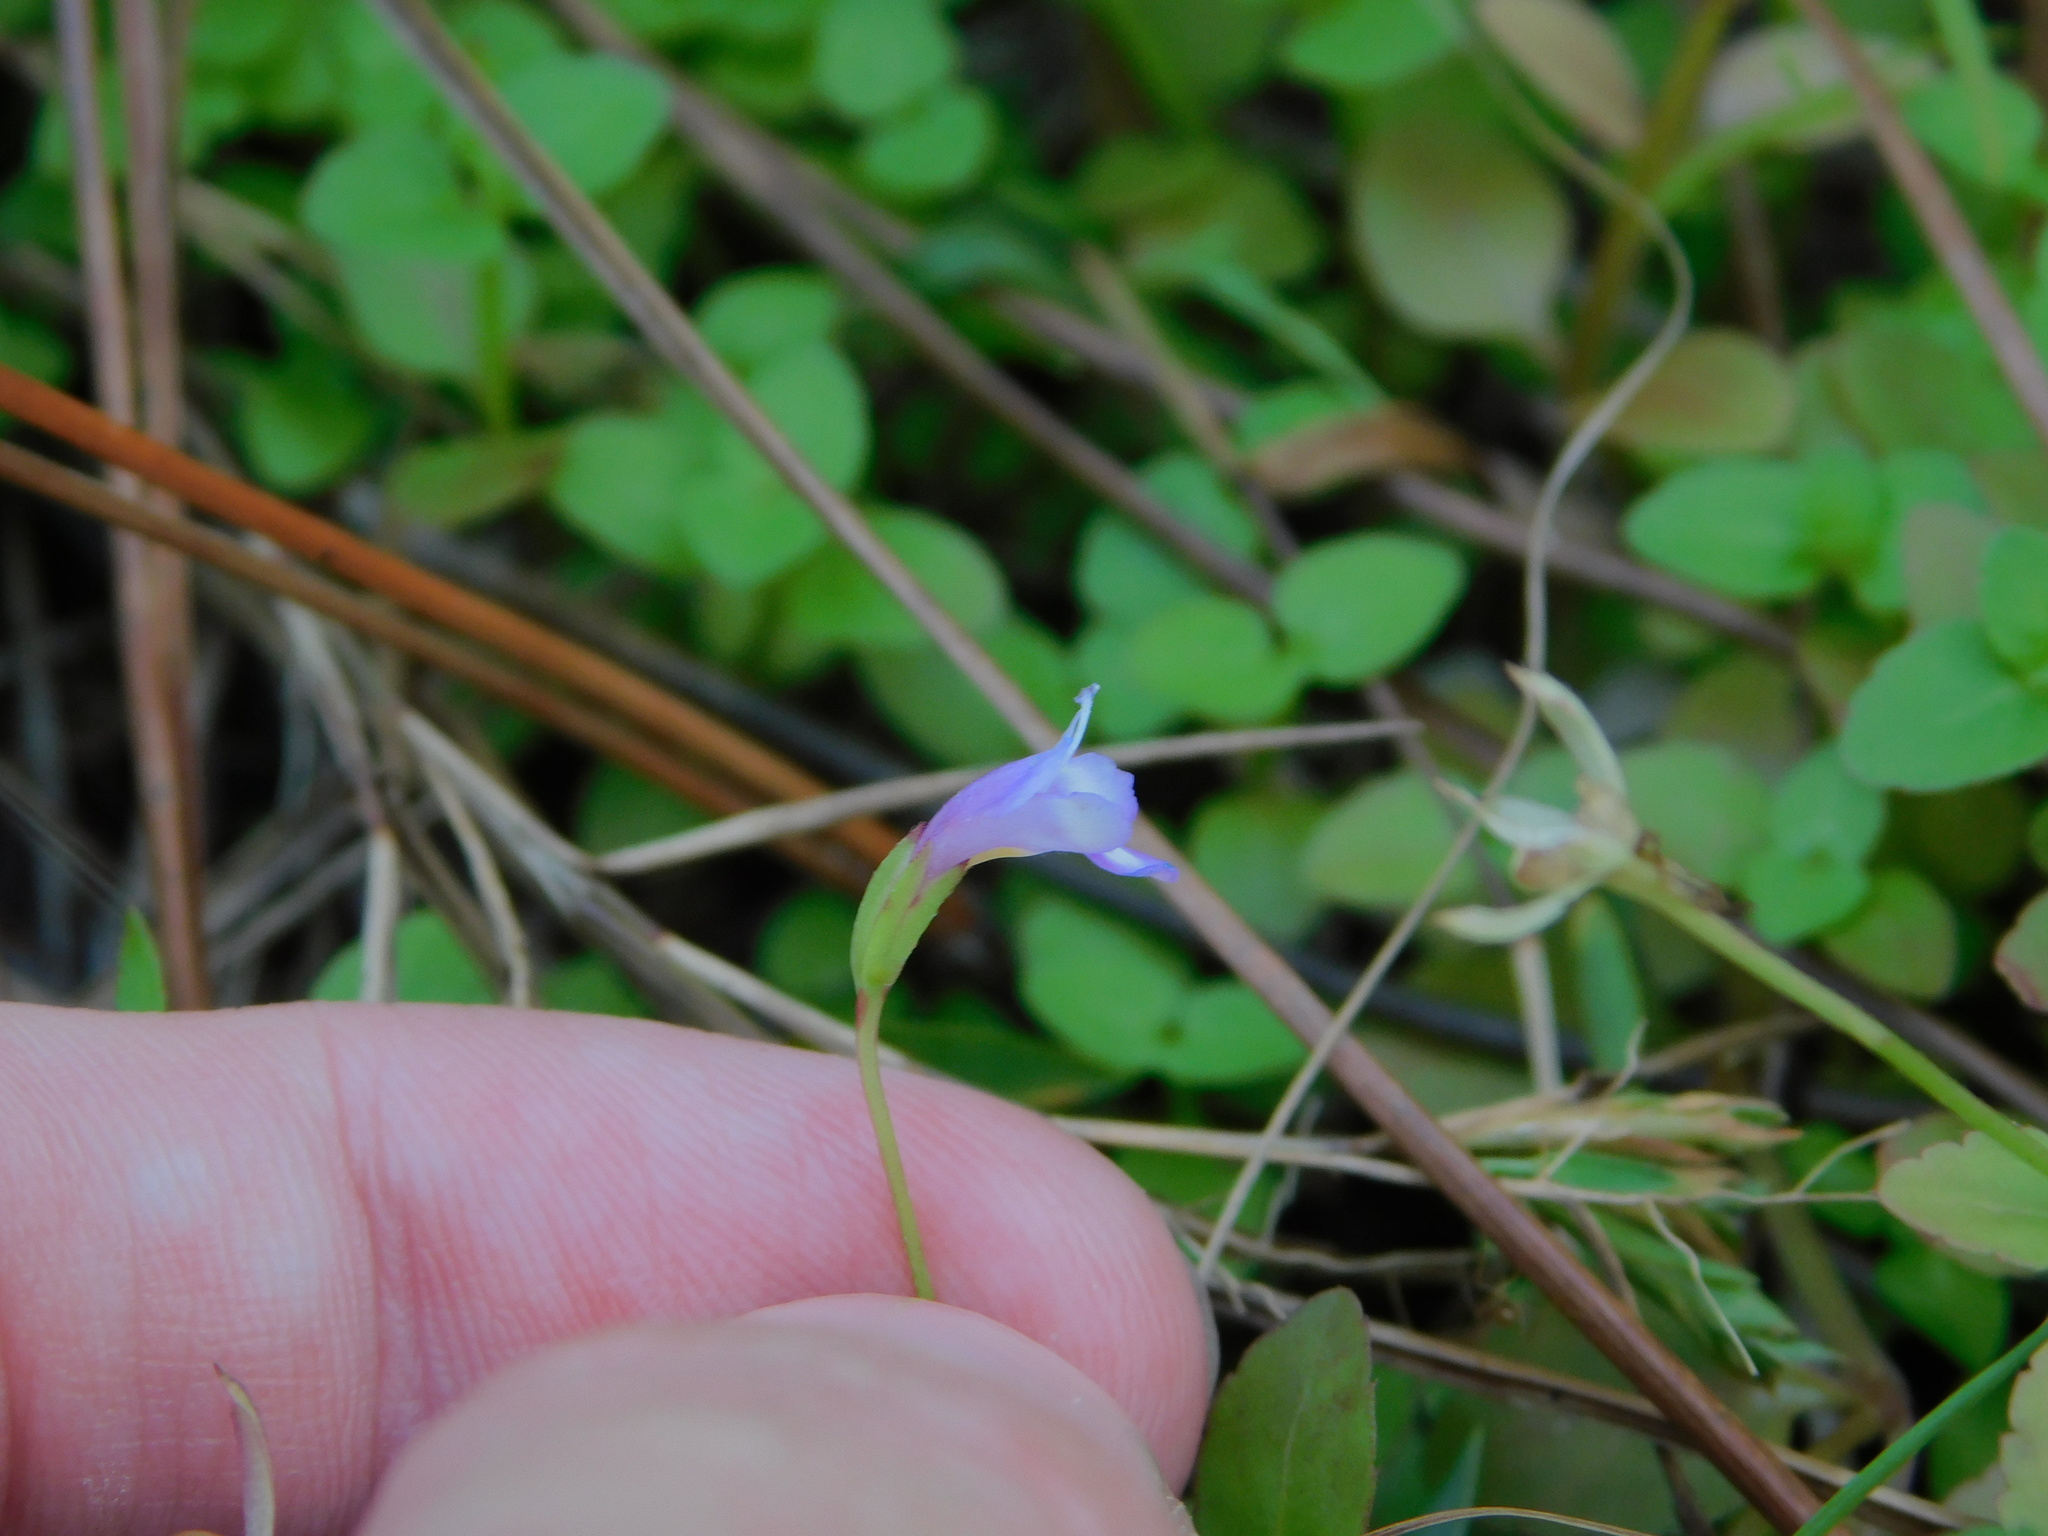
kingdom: Plantae
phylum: Tracheophyta
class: Magnoliopsida
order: Lamiales
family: Linderniaceae
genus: Torenia
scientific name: Torenia crustacea
